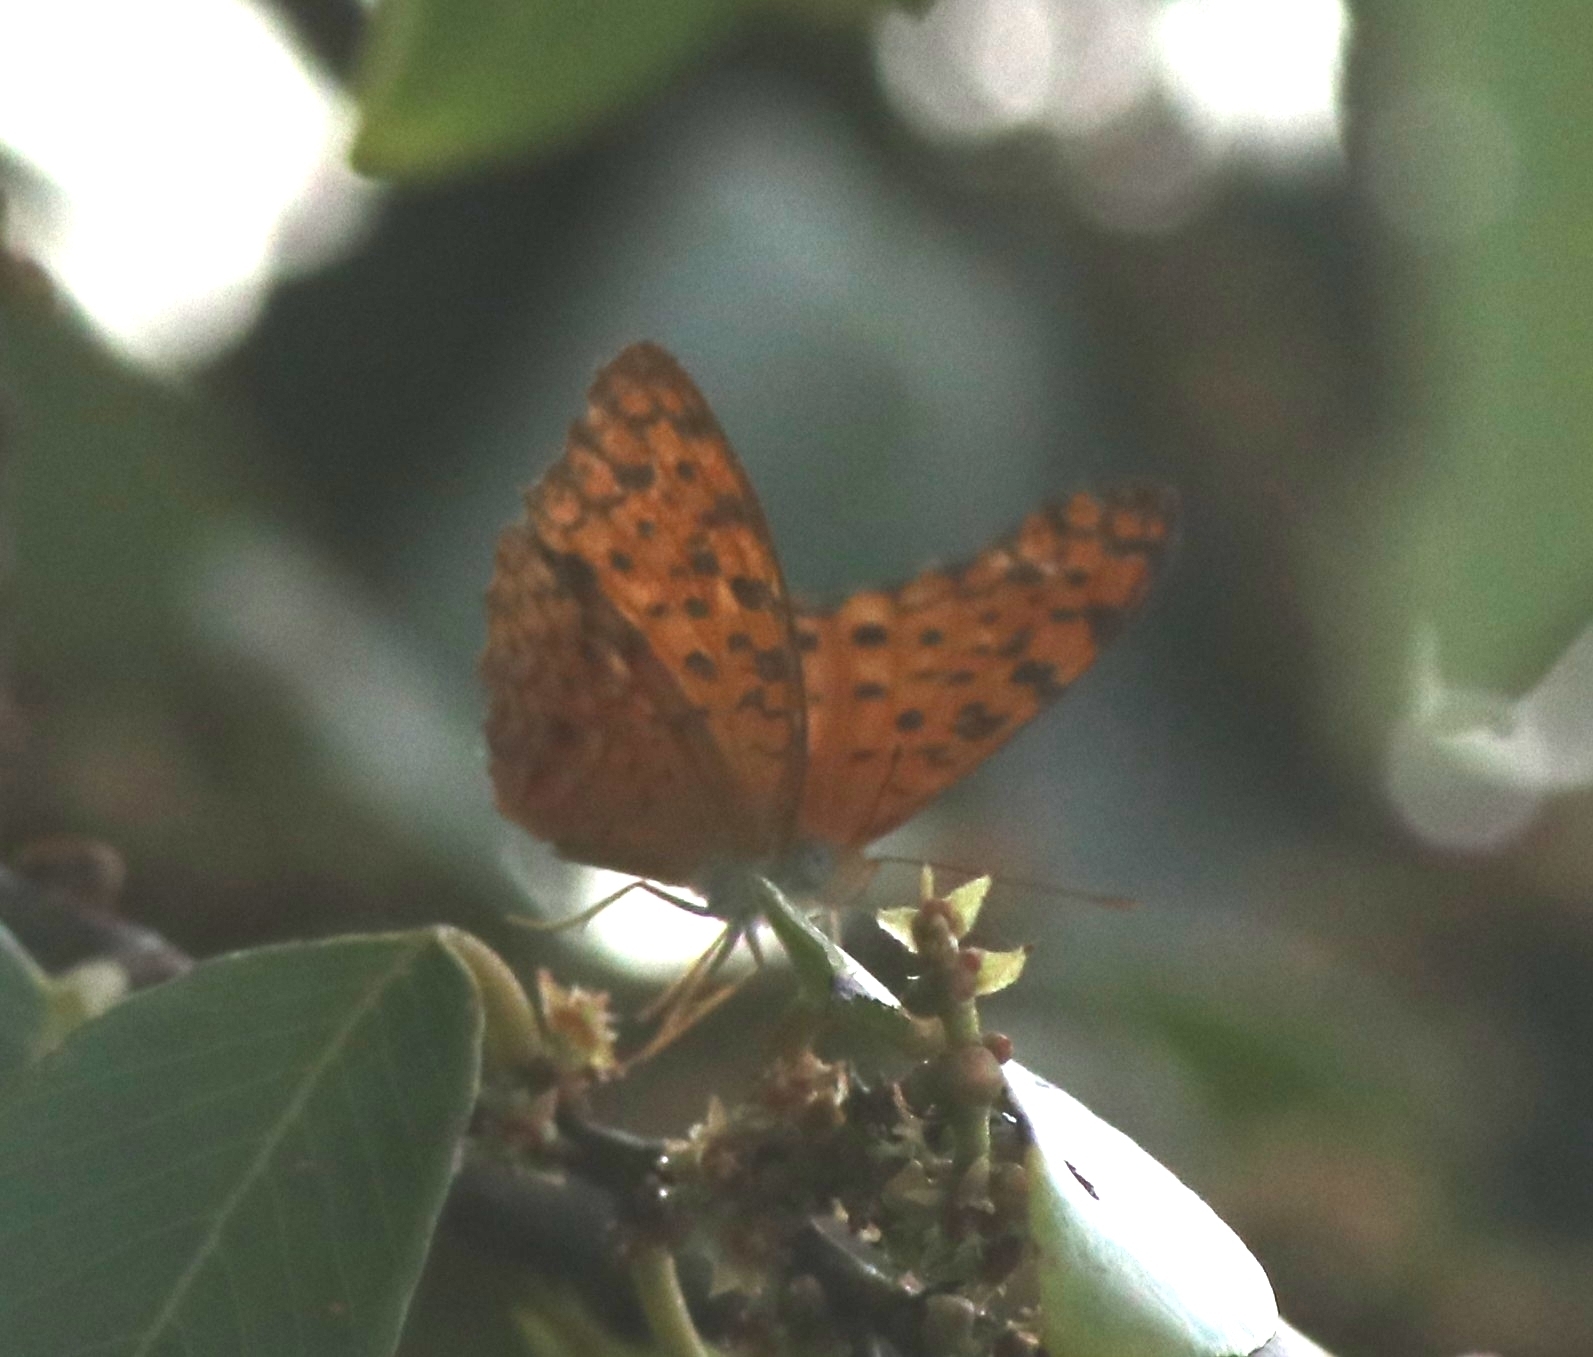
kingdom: Animalia
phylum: Arthropoda
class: Insecta
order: Lepidoptera
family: Nymphalidae
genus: Phalanta
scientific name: Phalanta phalantha
